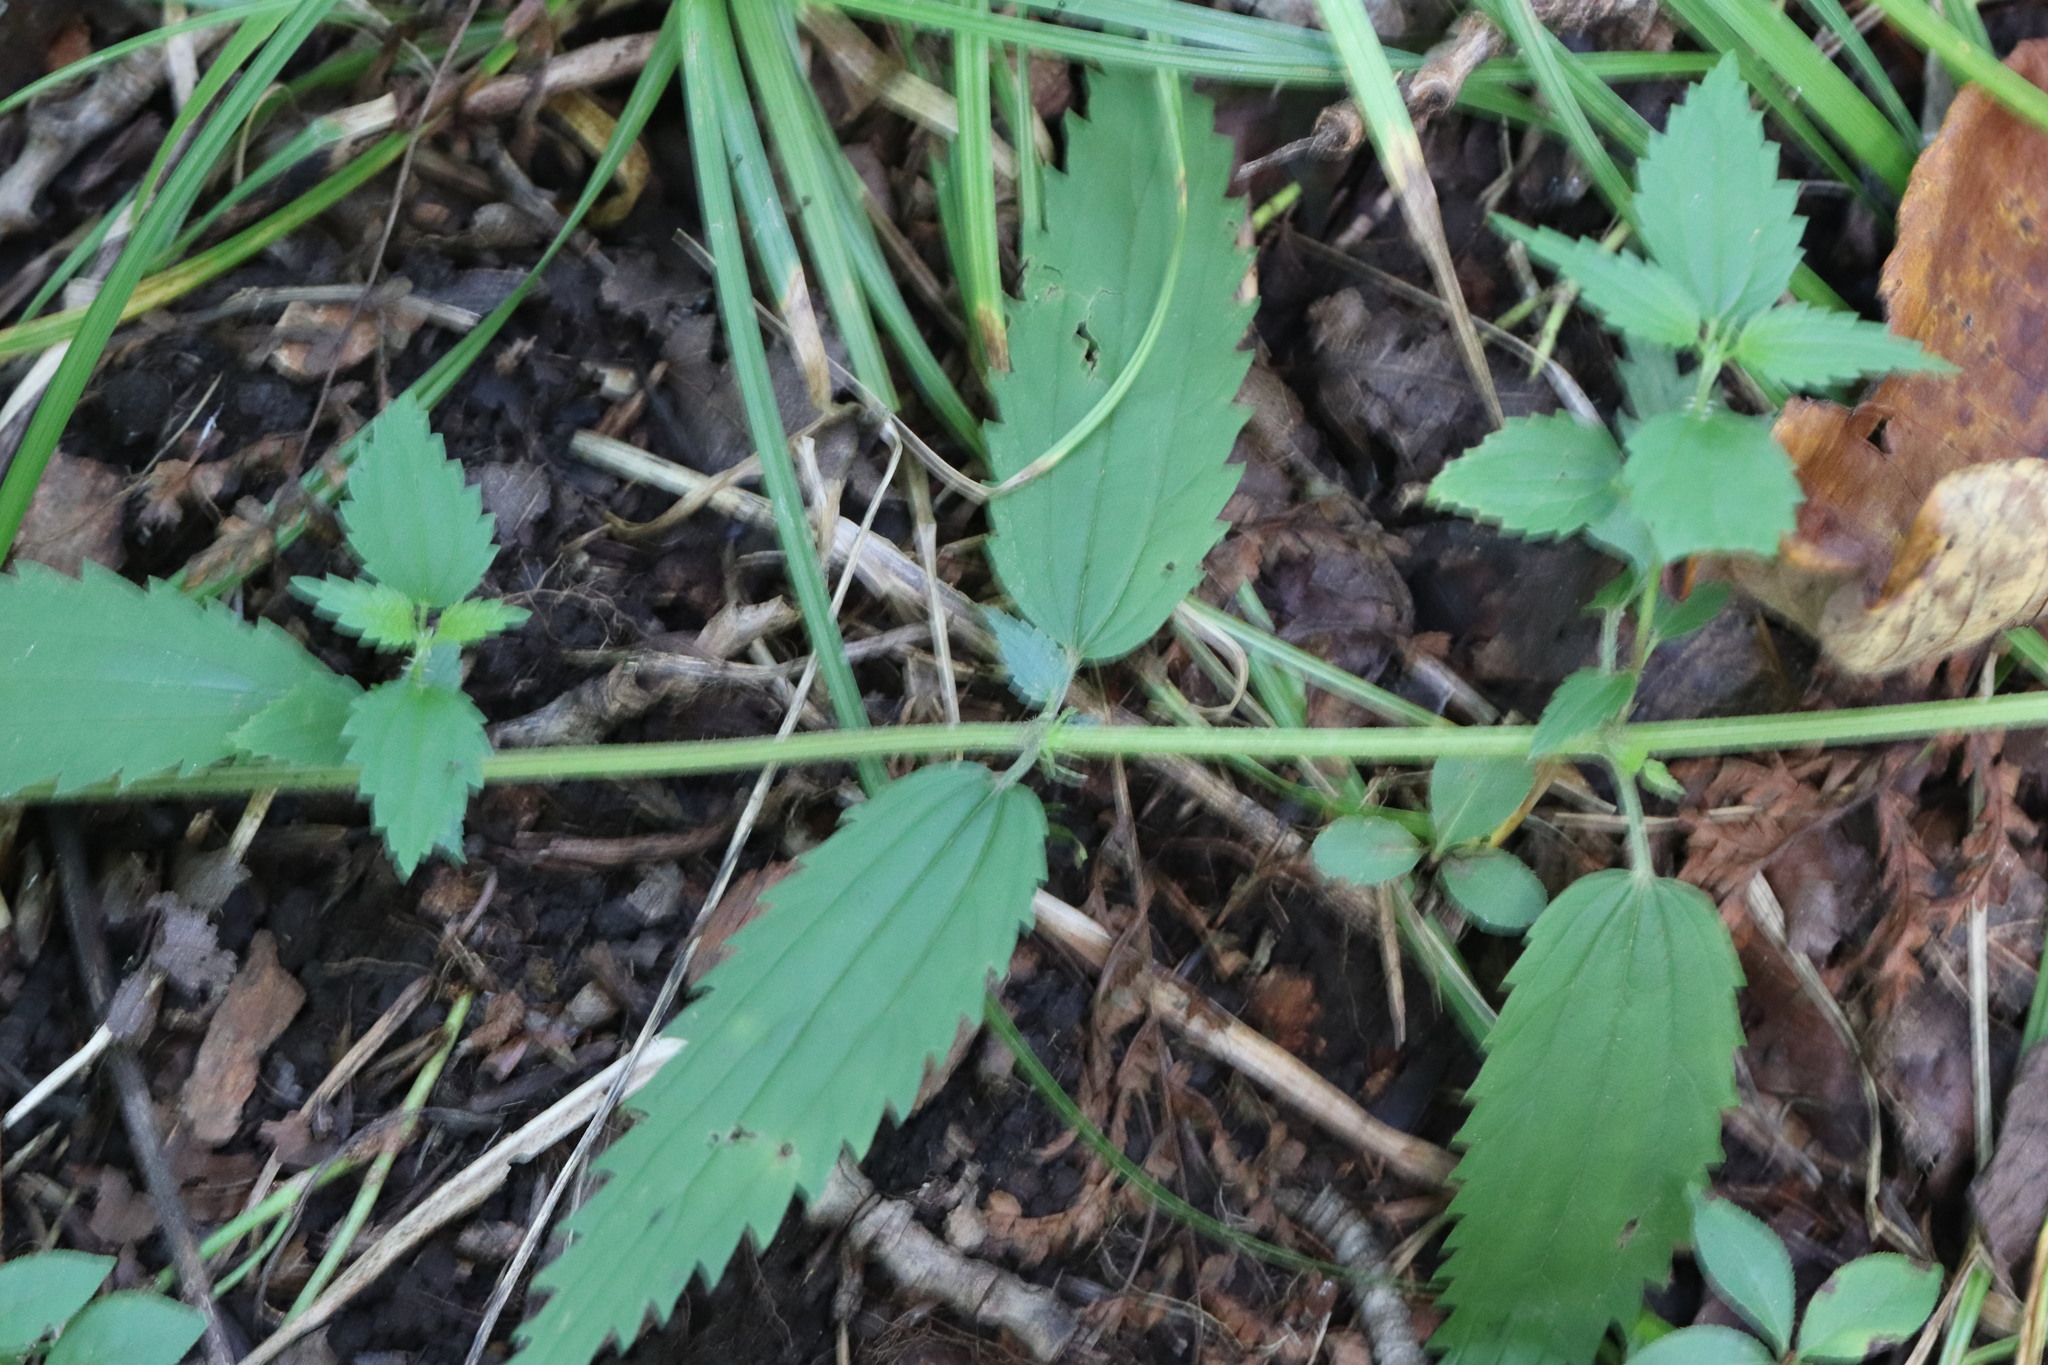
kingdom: Plantae
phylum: Tracheophyta
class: Magnoliopsida
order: Rosales
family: Urticaceae
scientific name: Urticaceae
